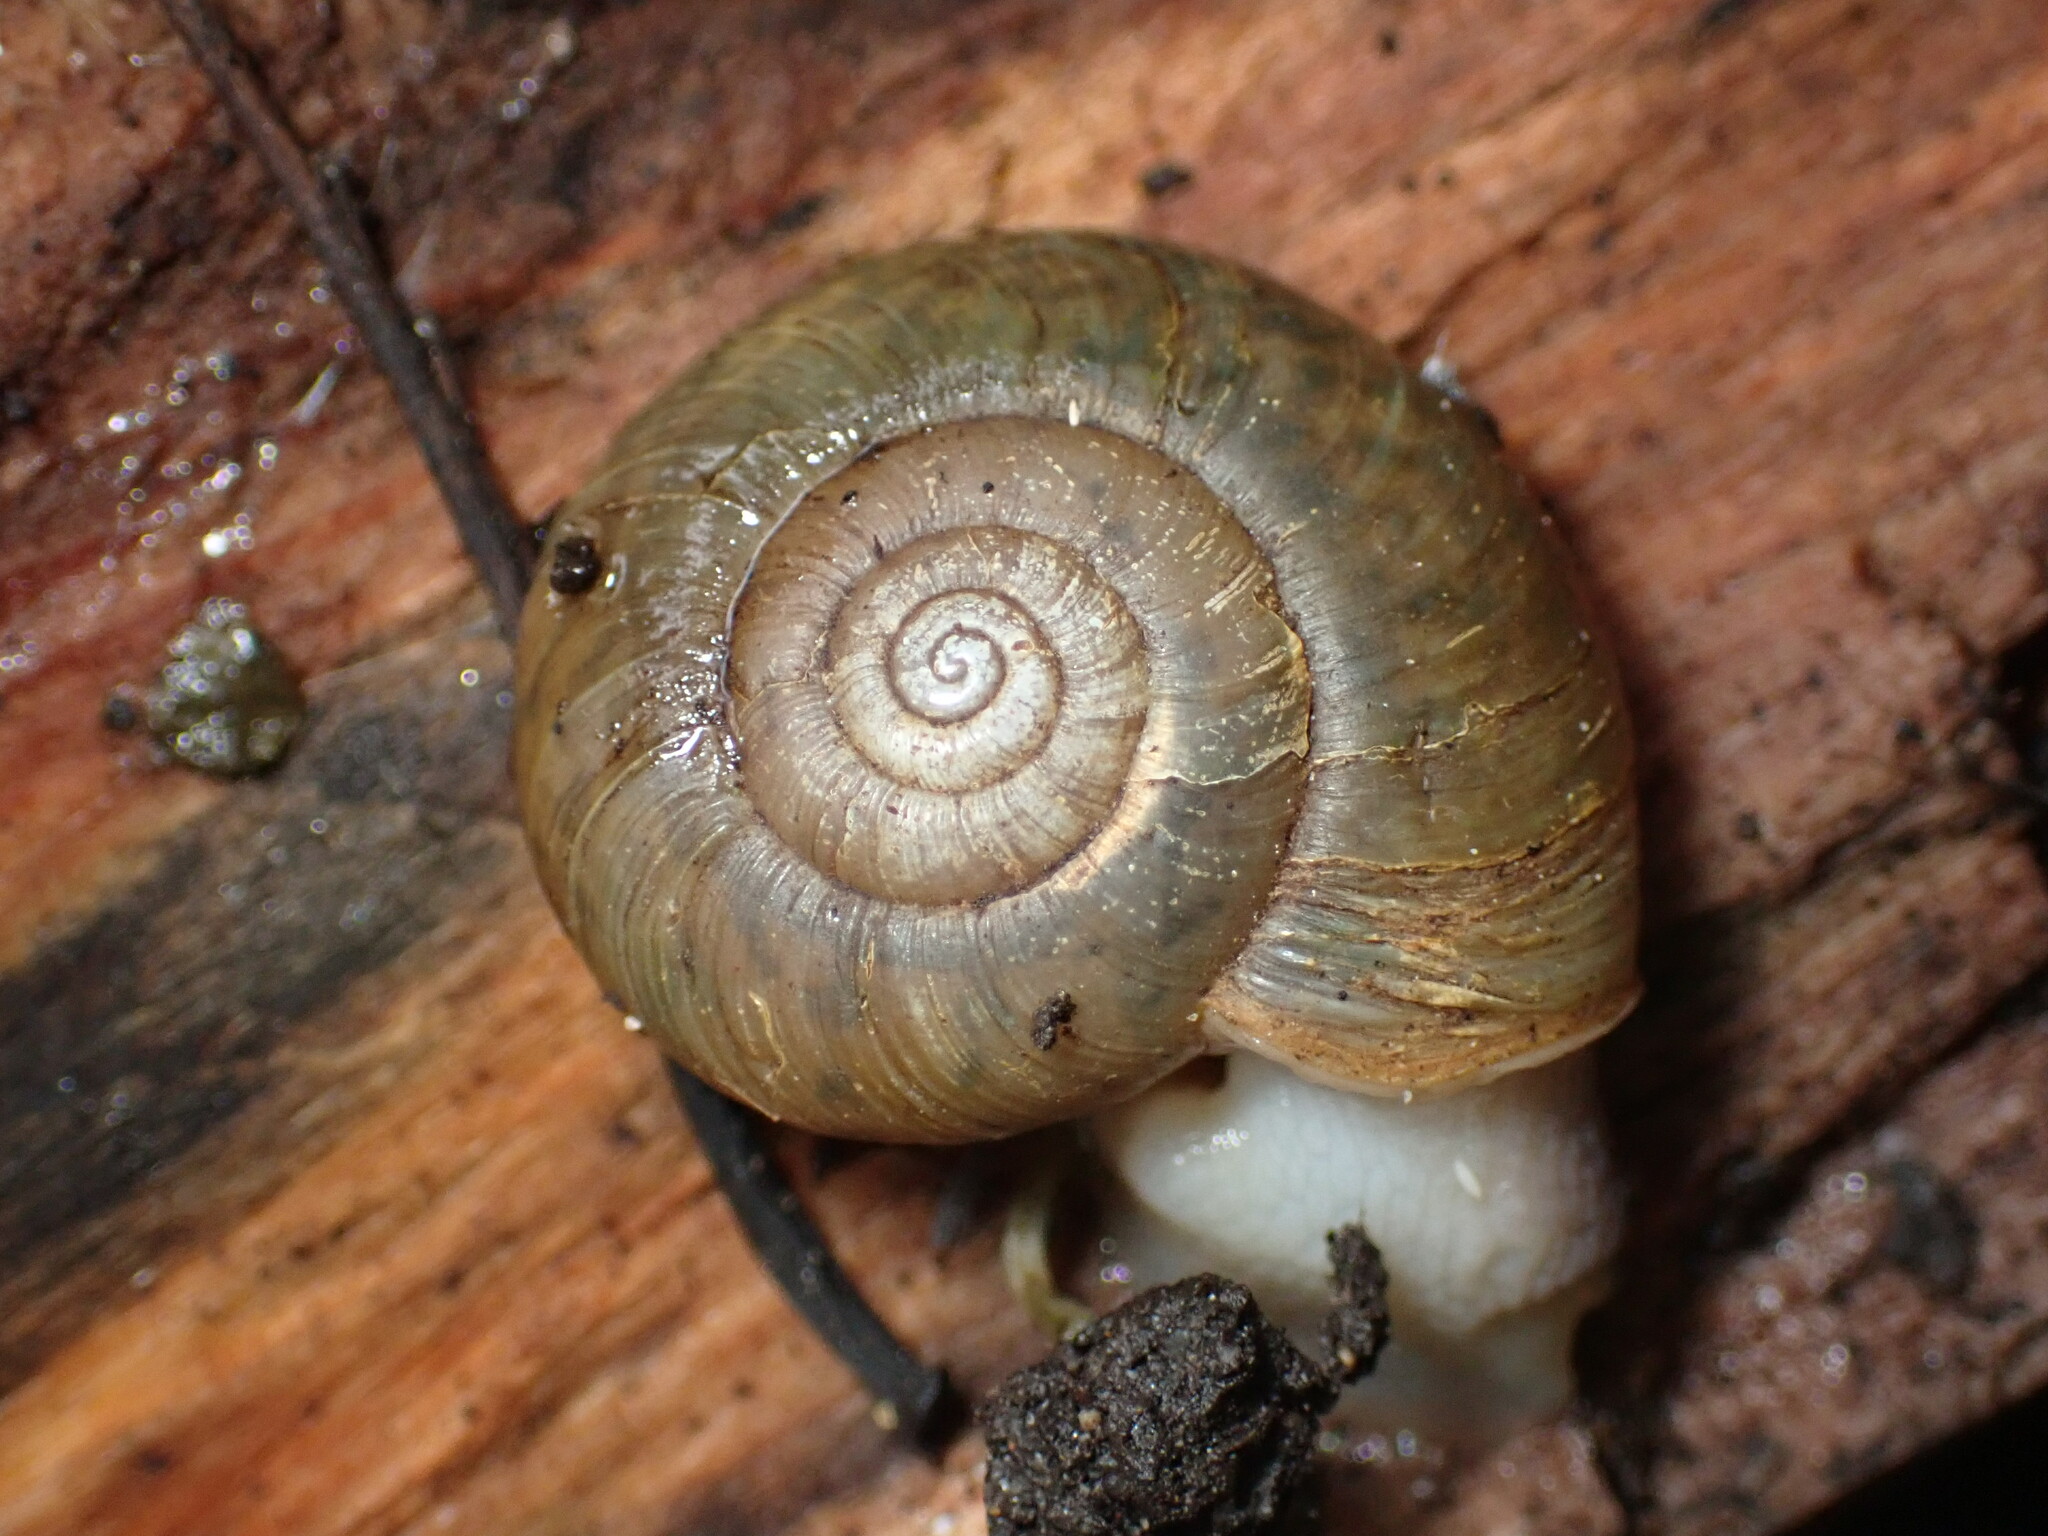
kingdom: Animalia
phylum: Mollusca
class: Gastropoda
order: Stylommatophora
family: Haplotrematidae
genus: Haplotrema
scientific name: Haplotrema minimum
